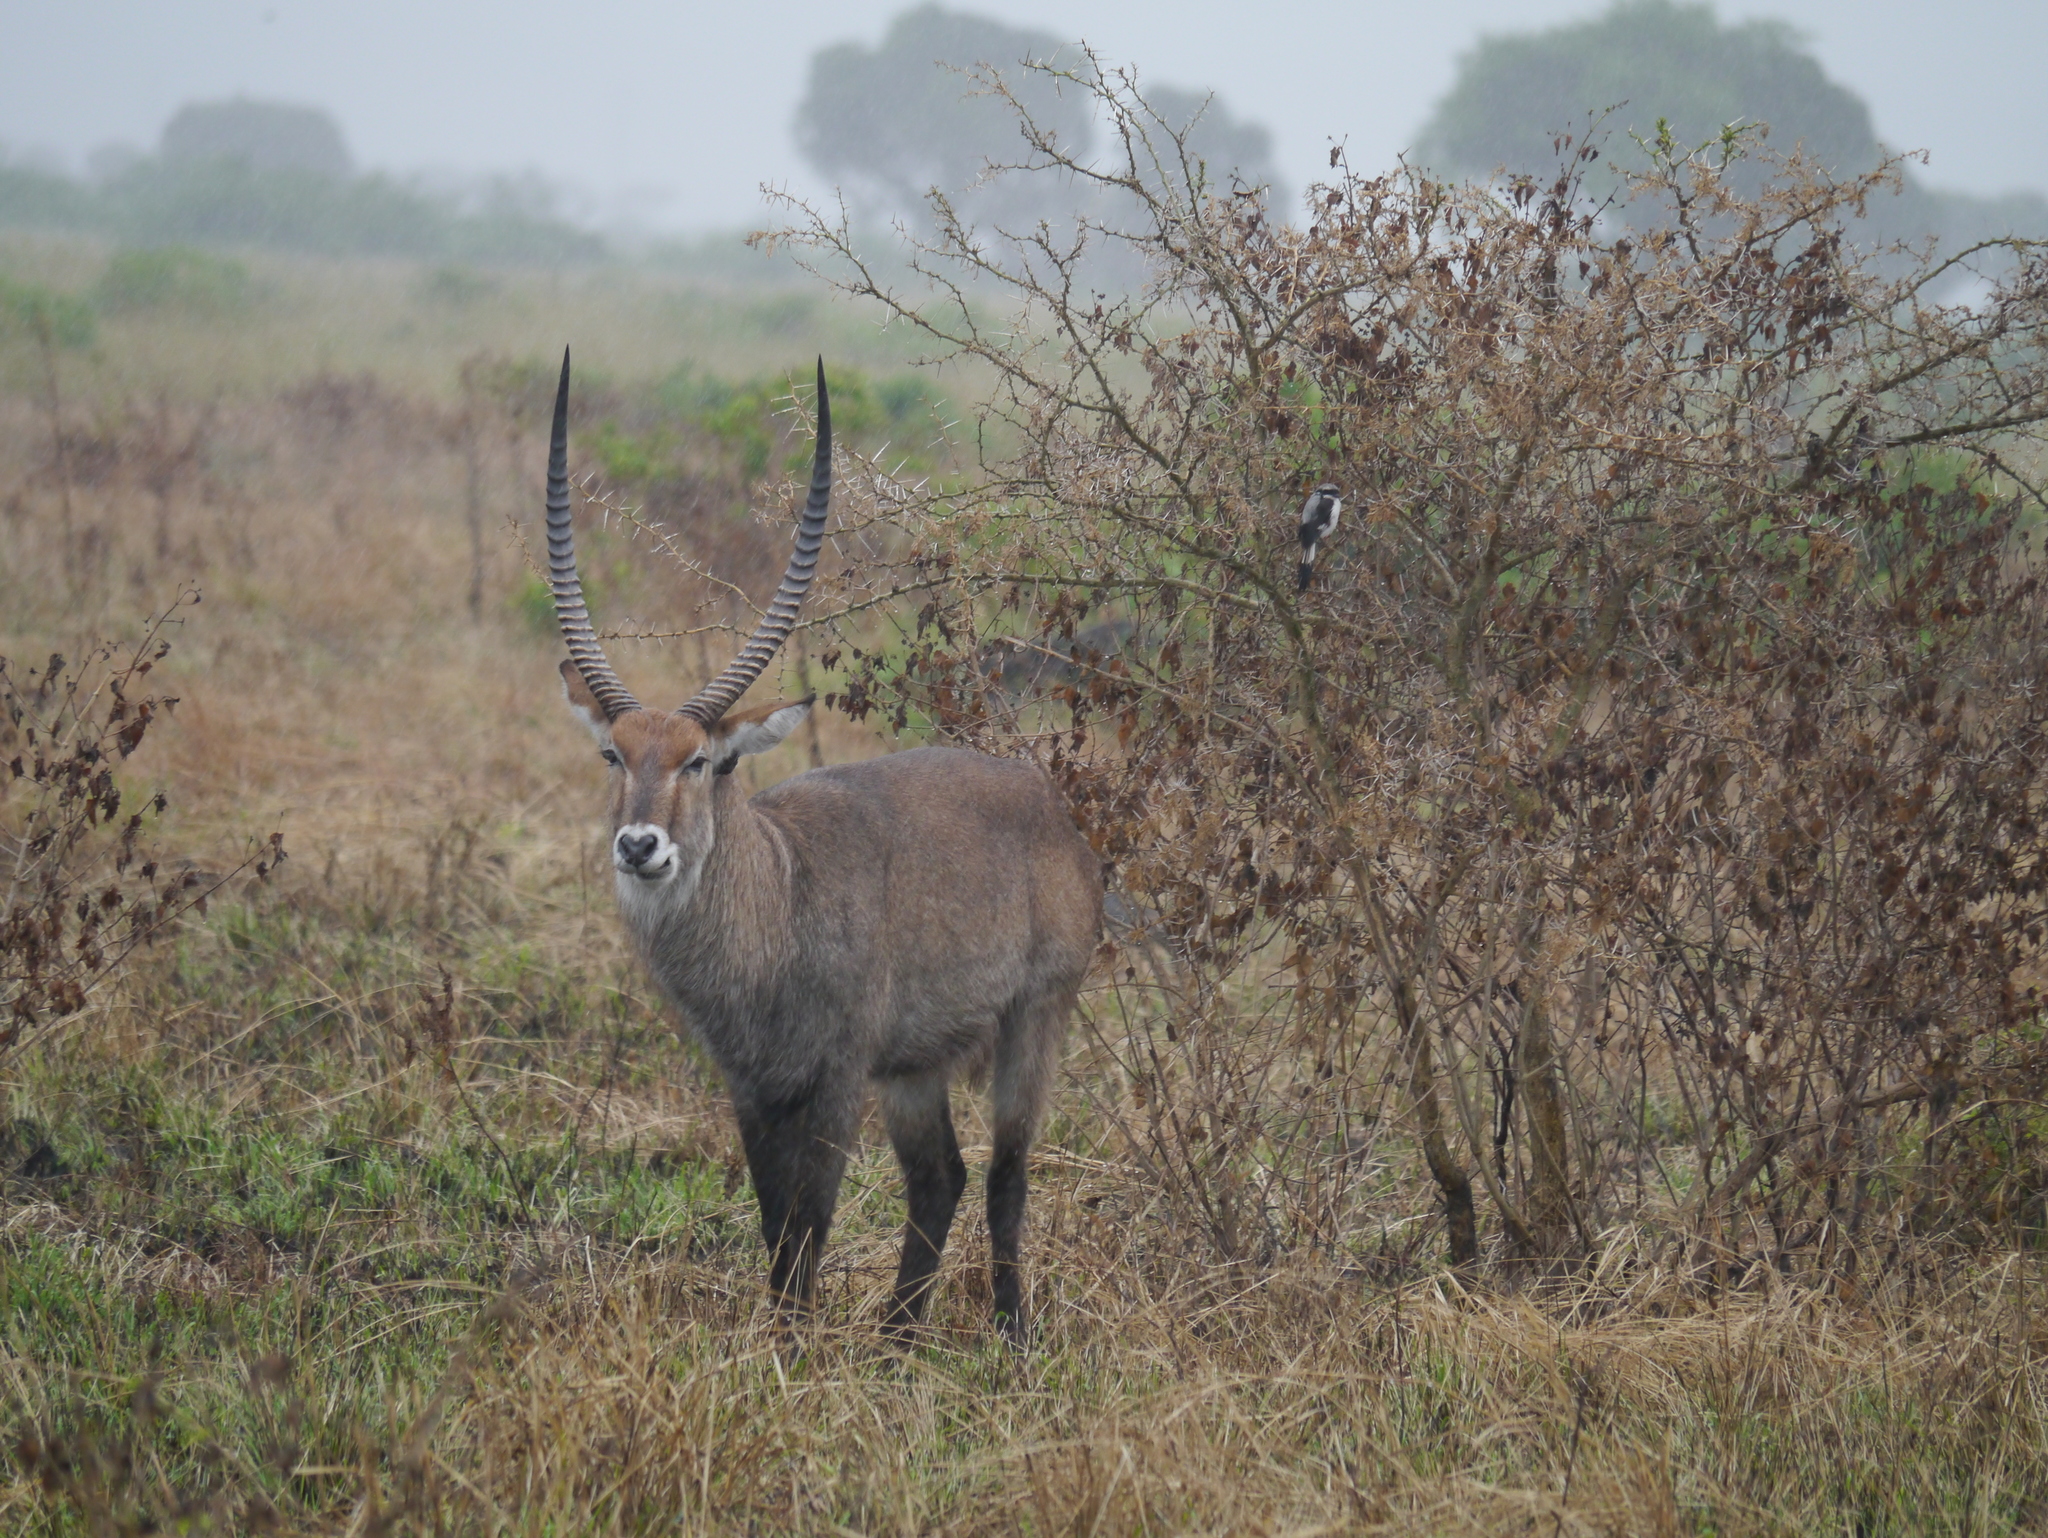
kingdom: Animalia
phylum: Chordata
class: Mammalia
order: Artiodactyla
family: Bovidae
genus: Kobus
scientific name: Kobus ellipsiprymnus
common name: Waterbuck
